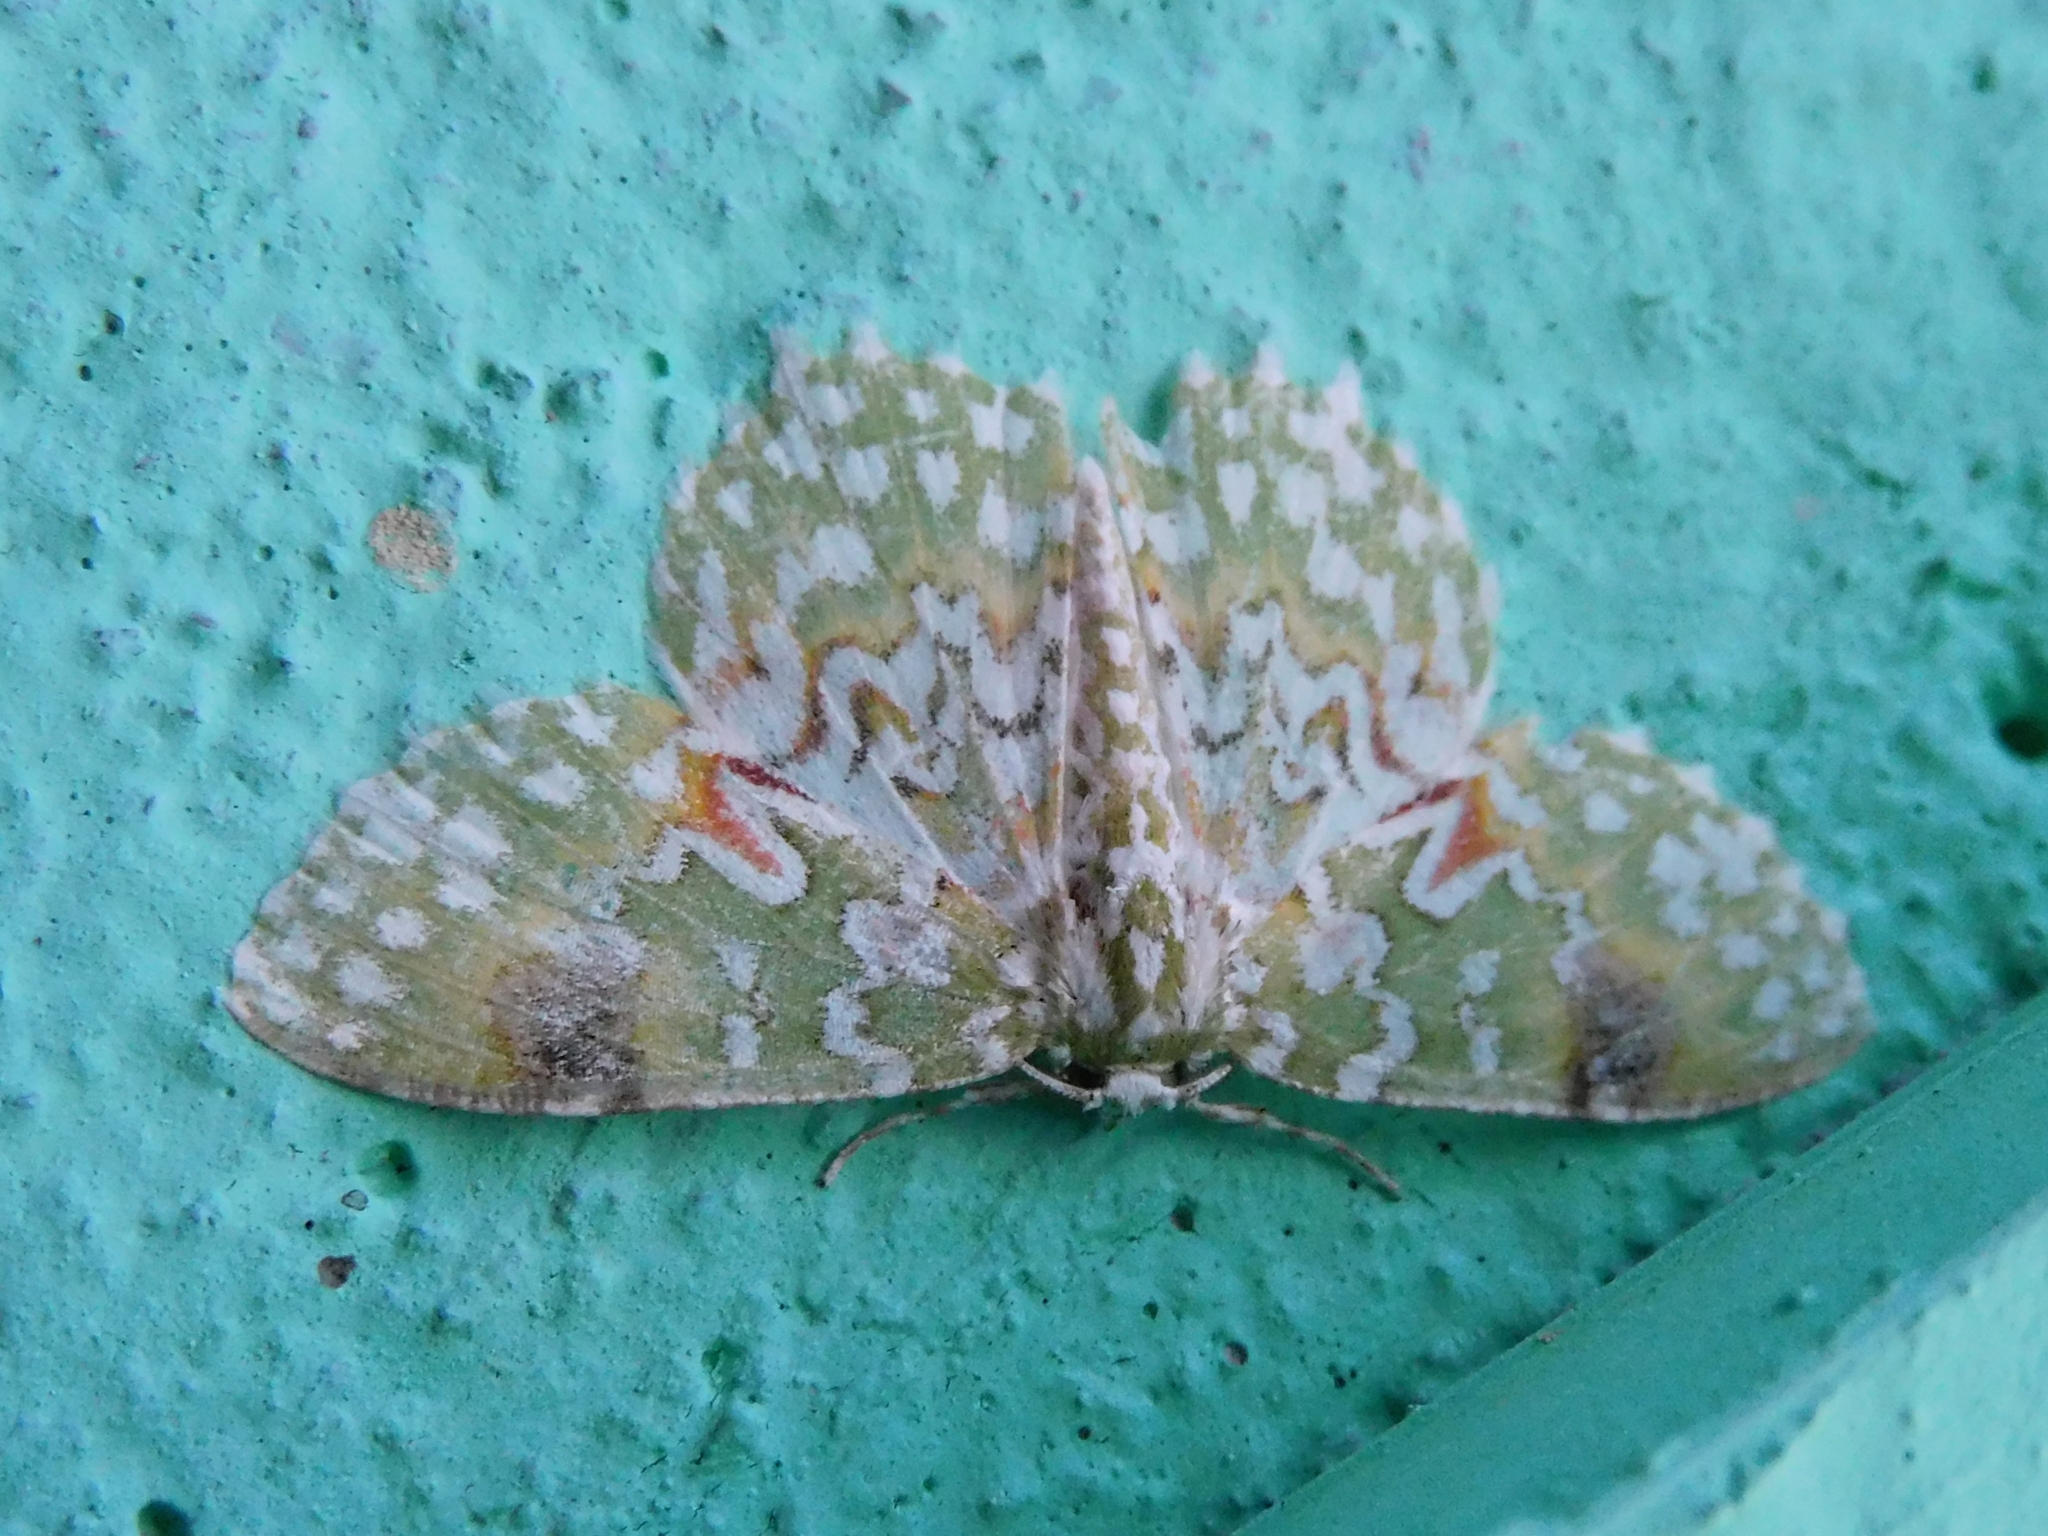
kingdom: Animalia
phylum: Arthropoda
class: Insecta
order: Lepidoptera
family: Geometridae
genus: Eucyclodes
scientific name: Eucyclodes gavissima
